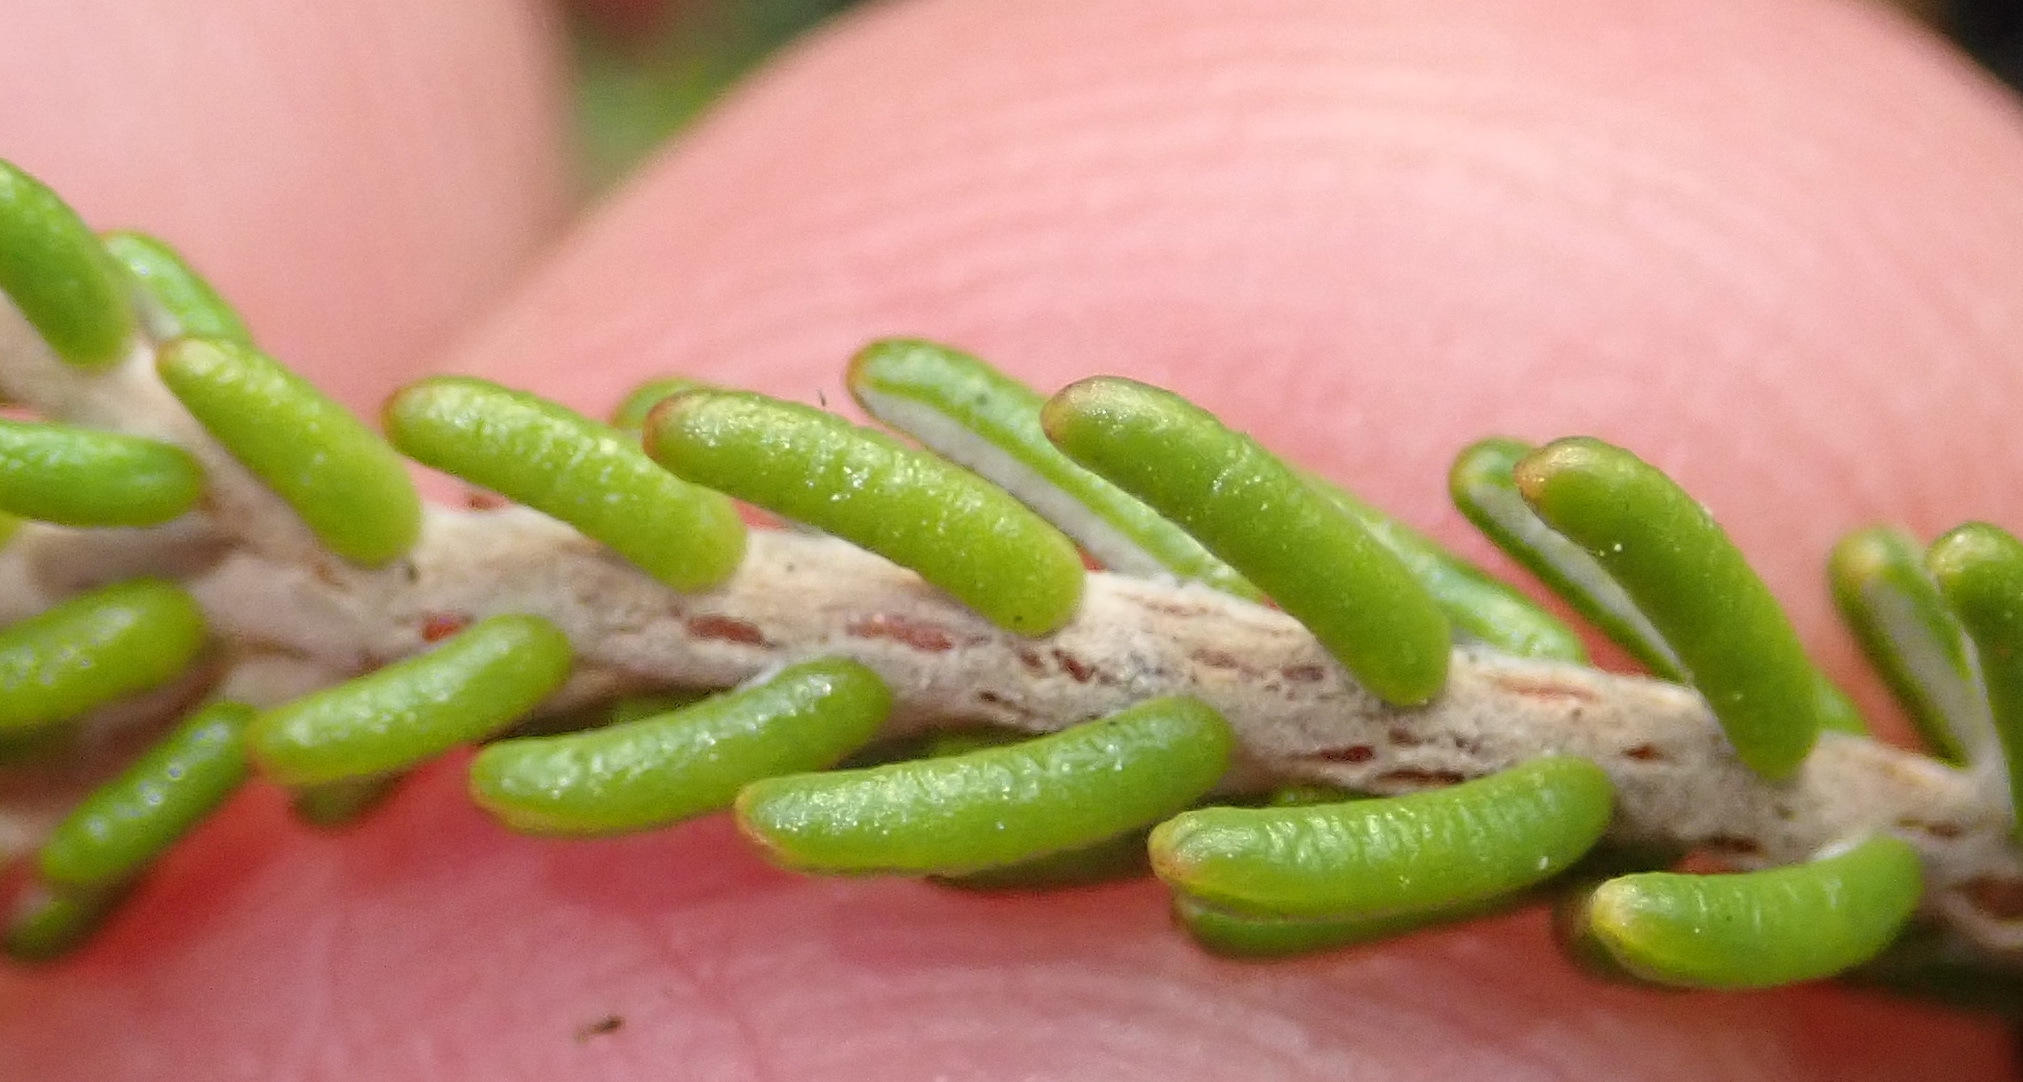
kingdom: Plantae
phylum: Tracheophyta
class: Magnoliopsida
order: Malvales
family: Thymelaeaceae
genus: Passerina
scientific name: Passerina galpinii
